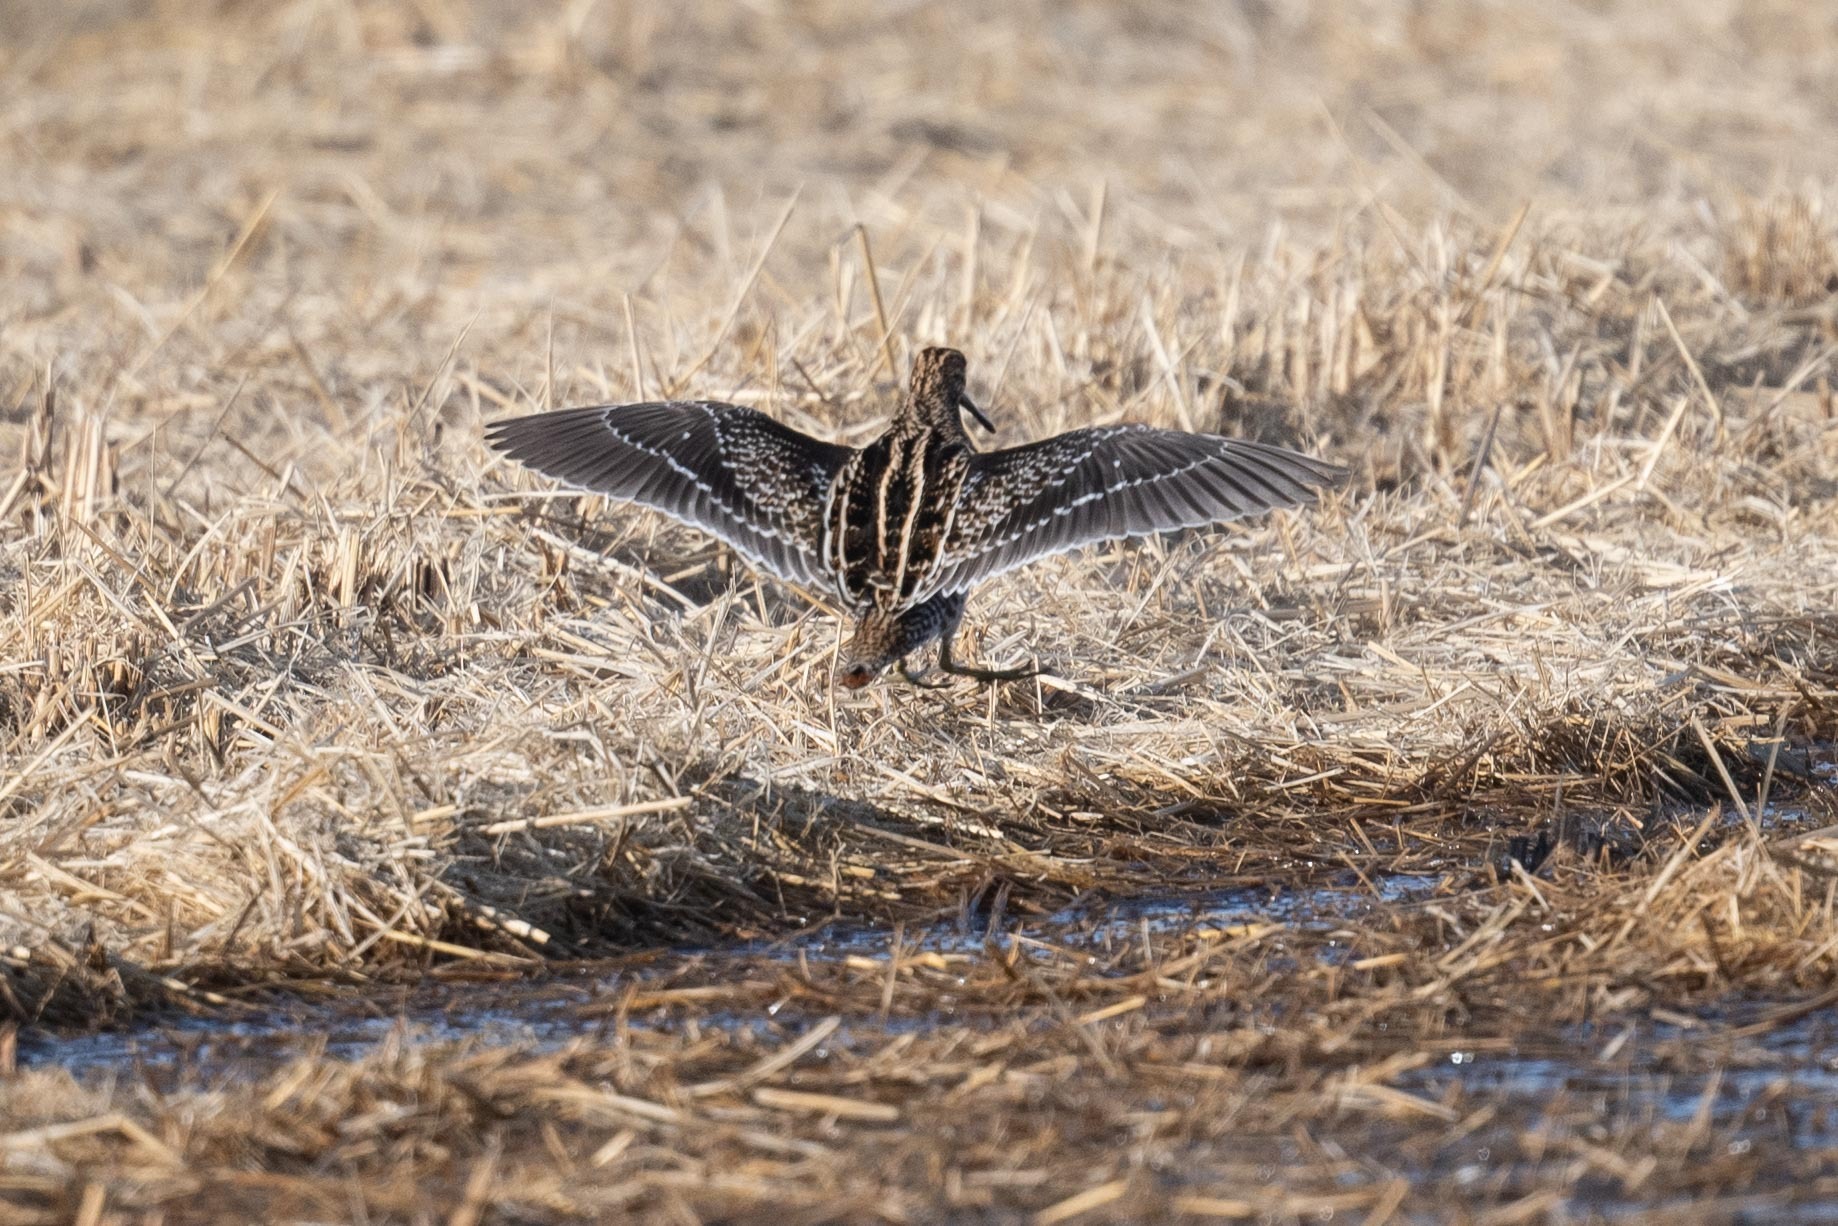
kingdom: Animalia
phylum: Chordata
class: Aves
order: Charadriiformes
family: Scolopacidae
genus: Gallinago
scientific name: Gallinago delicata
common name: Wilson's snipe
